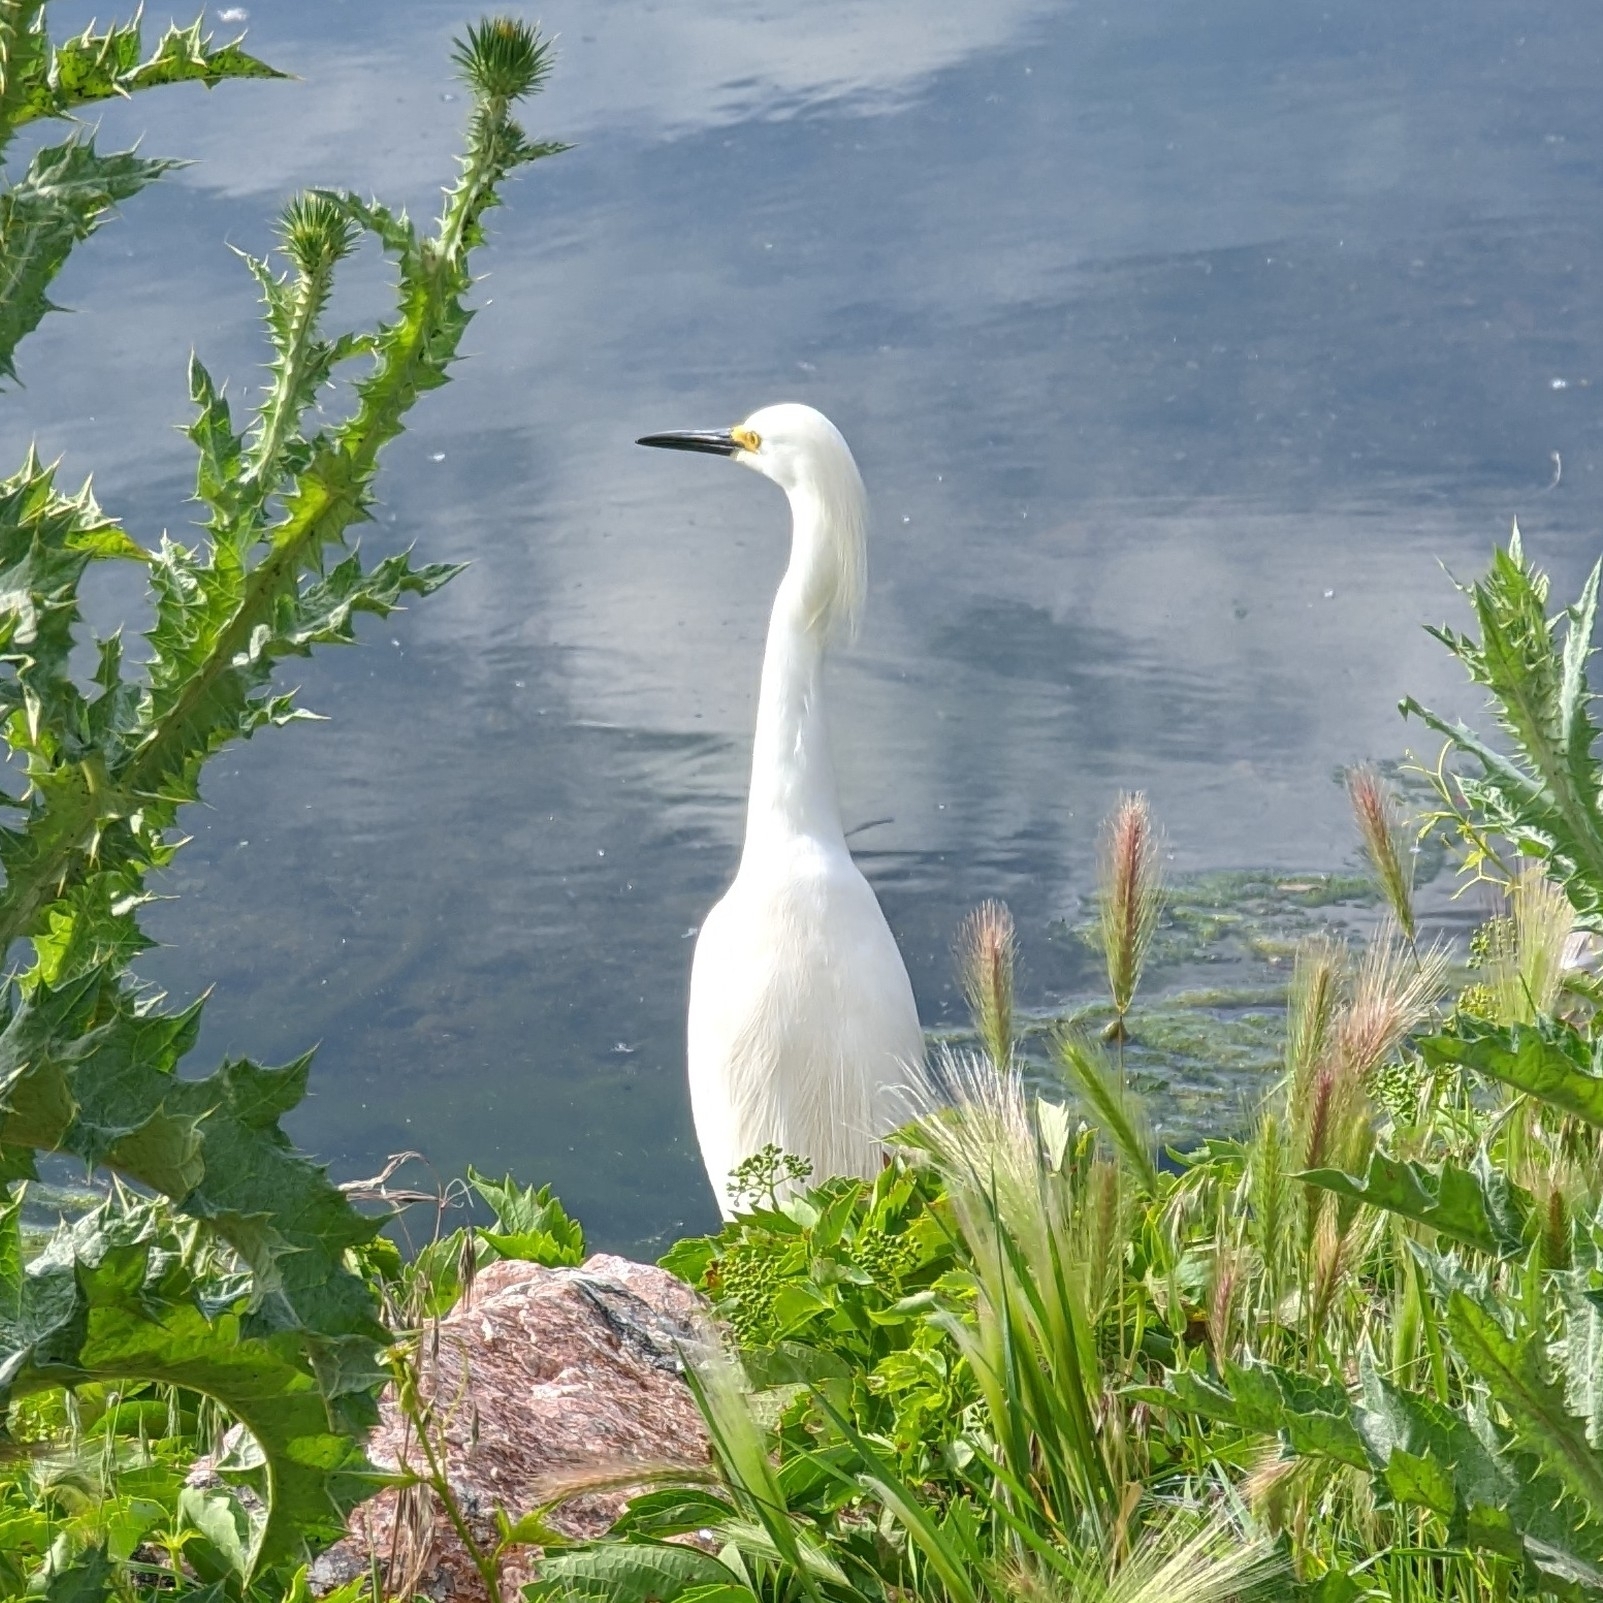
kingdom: Animalia
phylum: Chordata
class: Aves
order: Pelecaniformes
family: Ardeidae
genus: Egretta
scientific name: Egretta thula
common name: Snowy egret
